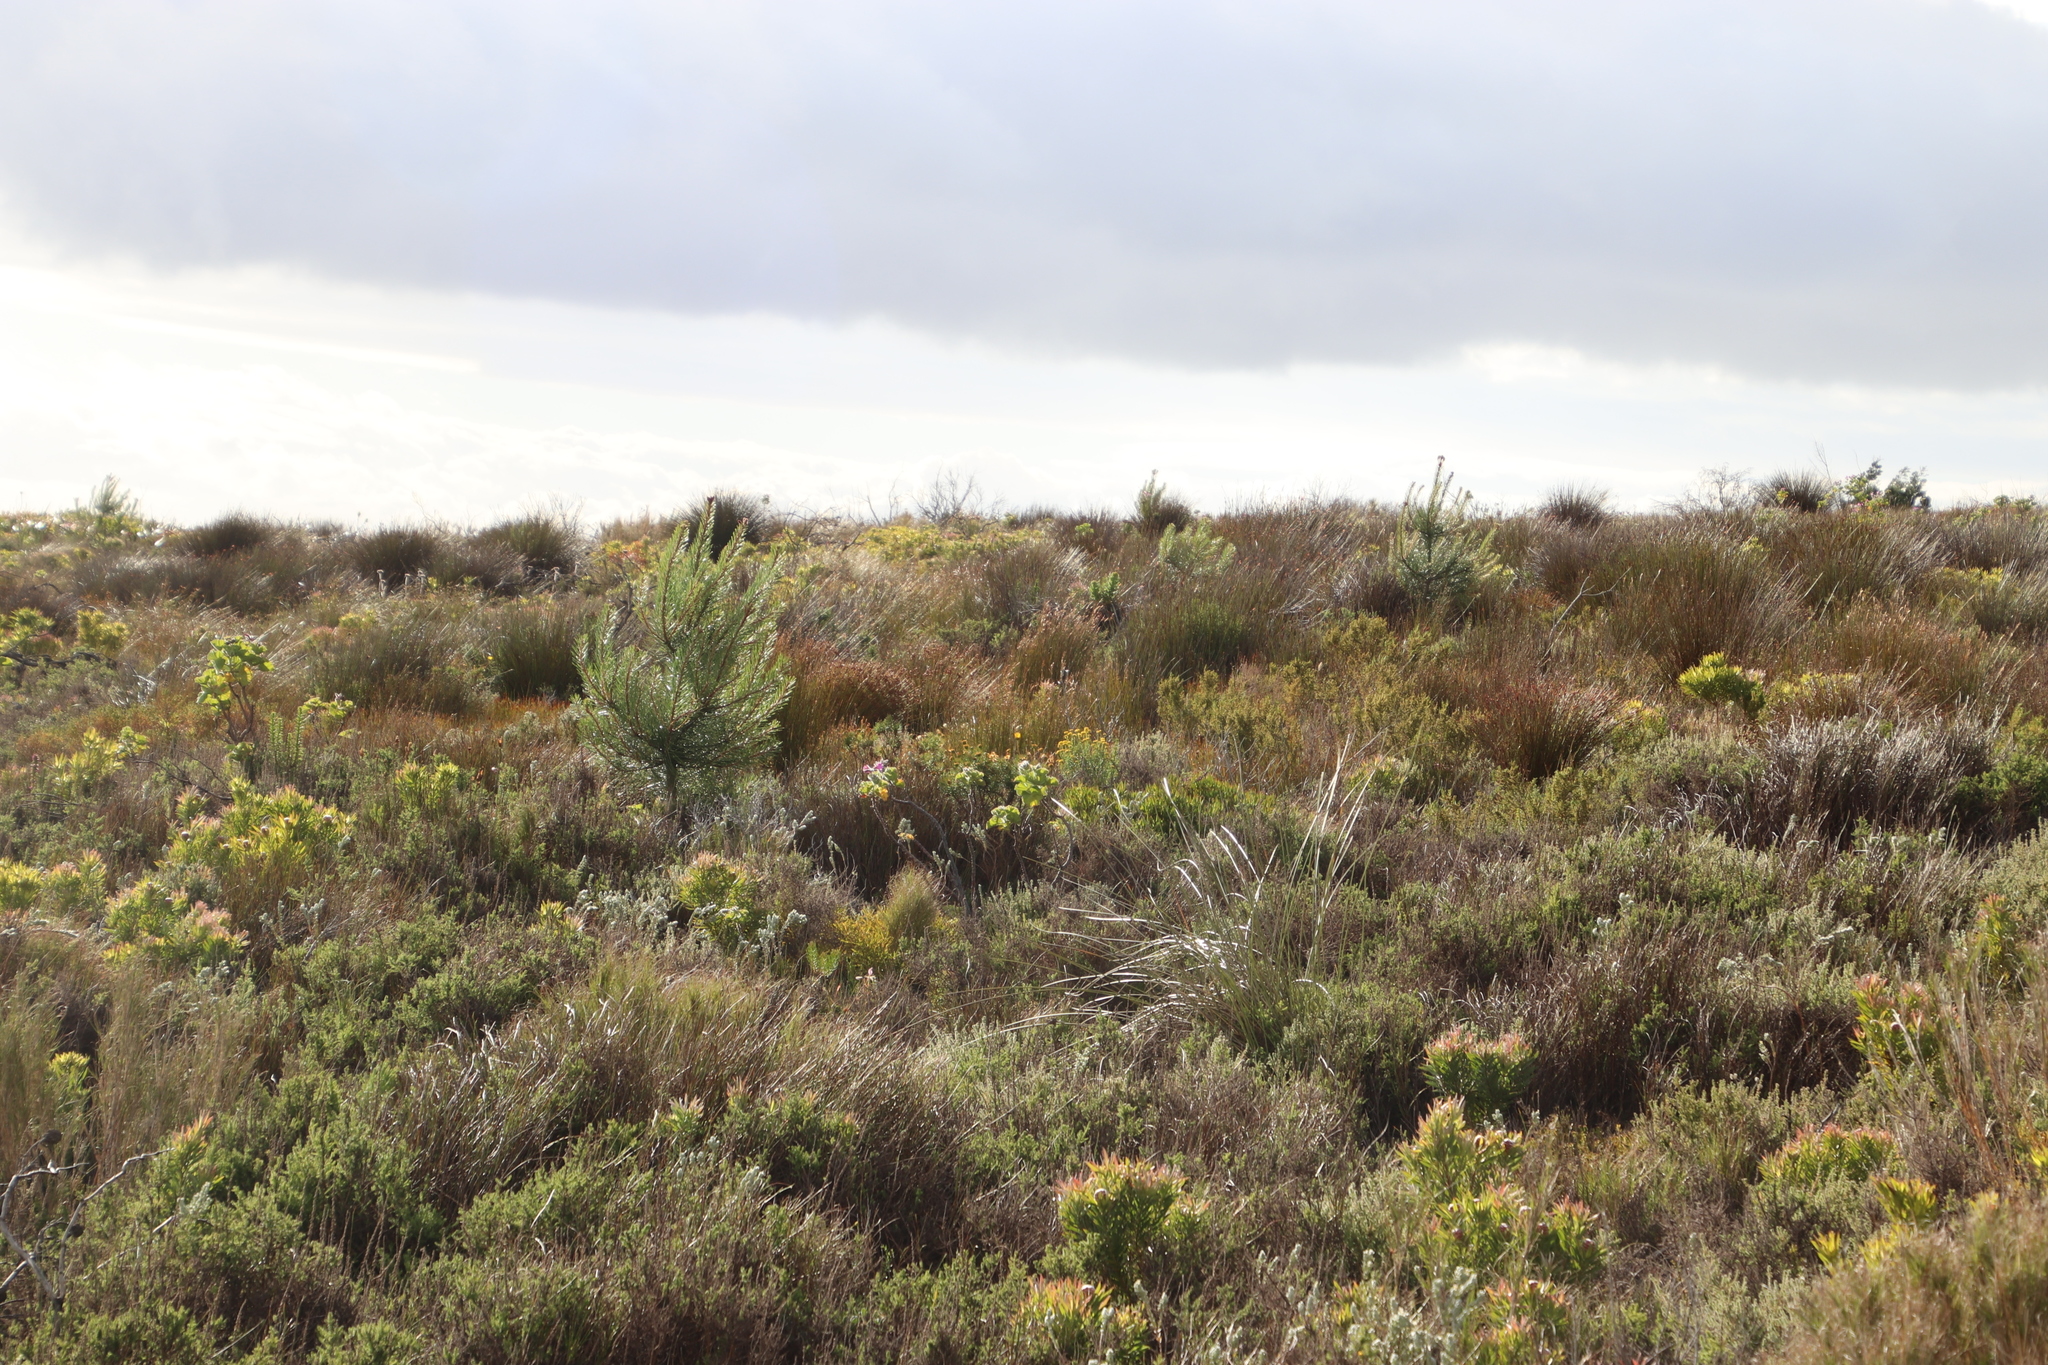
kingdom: Plantae
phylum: Tracheophyta
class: Pinopsida
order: Pinales
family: Pinaceae
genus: Pinus
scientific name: Pinus pinaster
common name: Maritime pine
